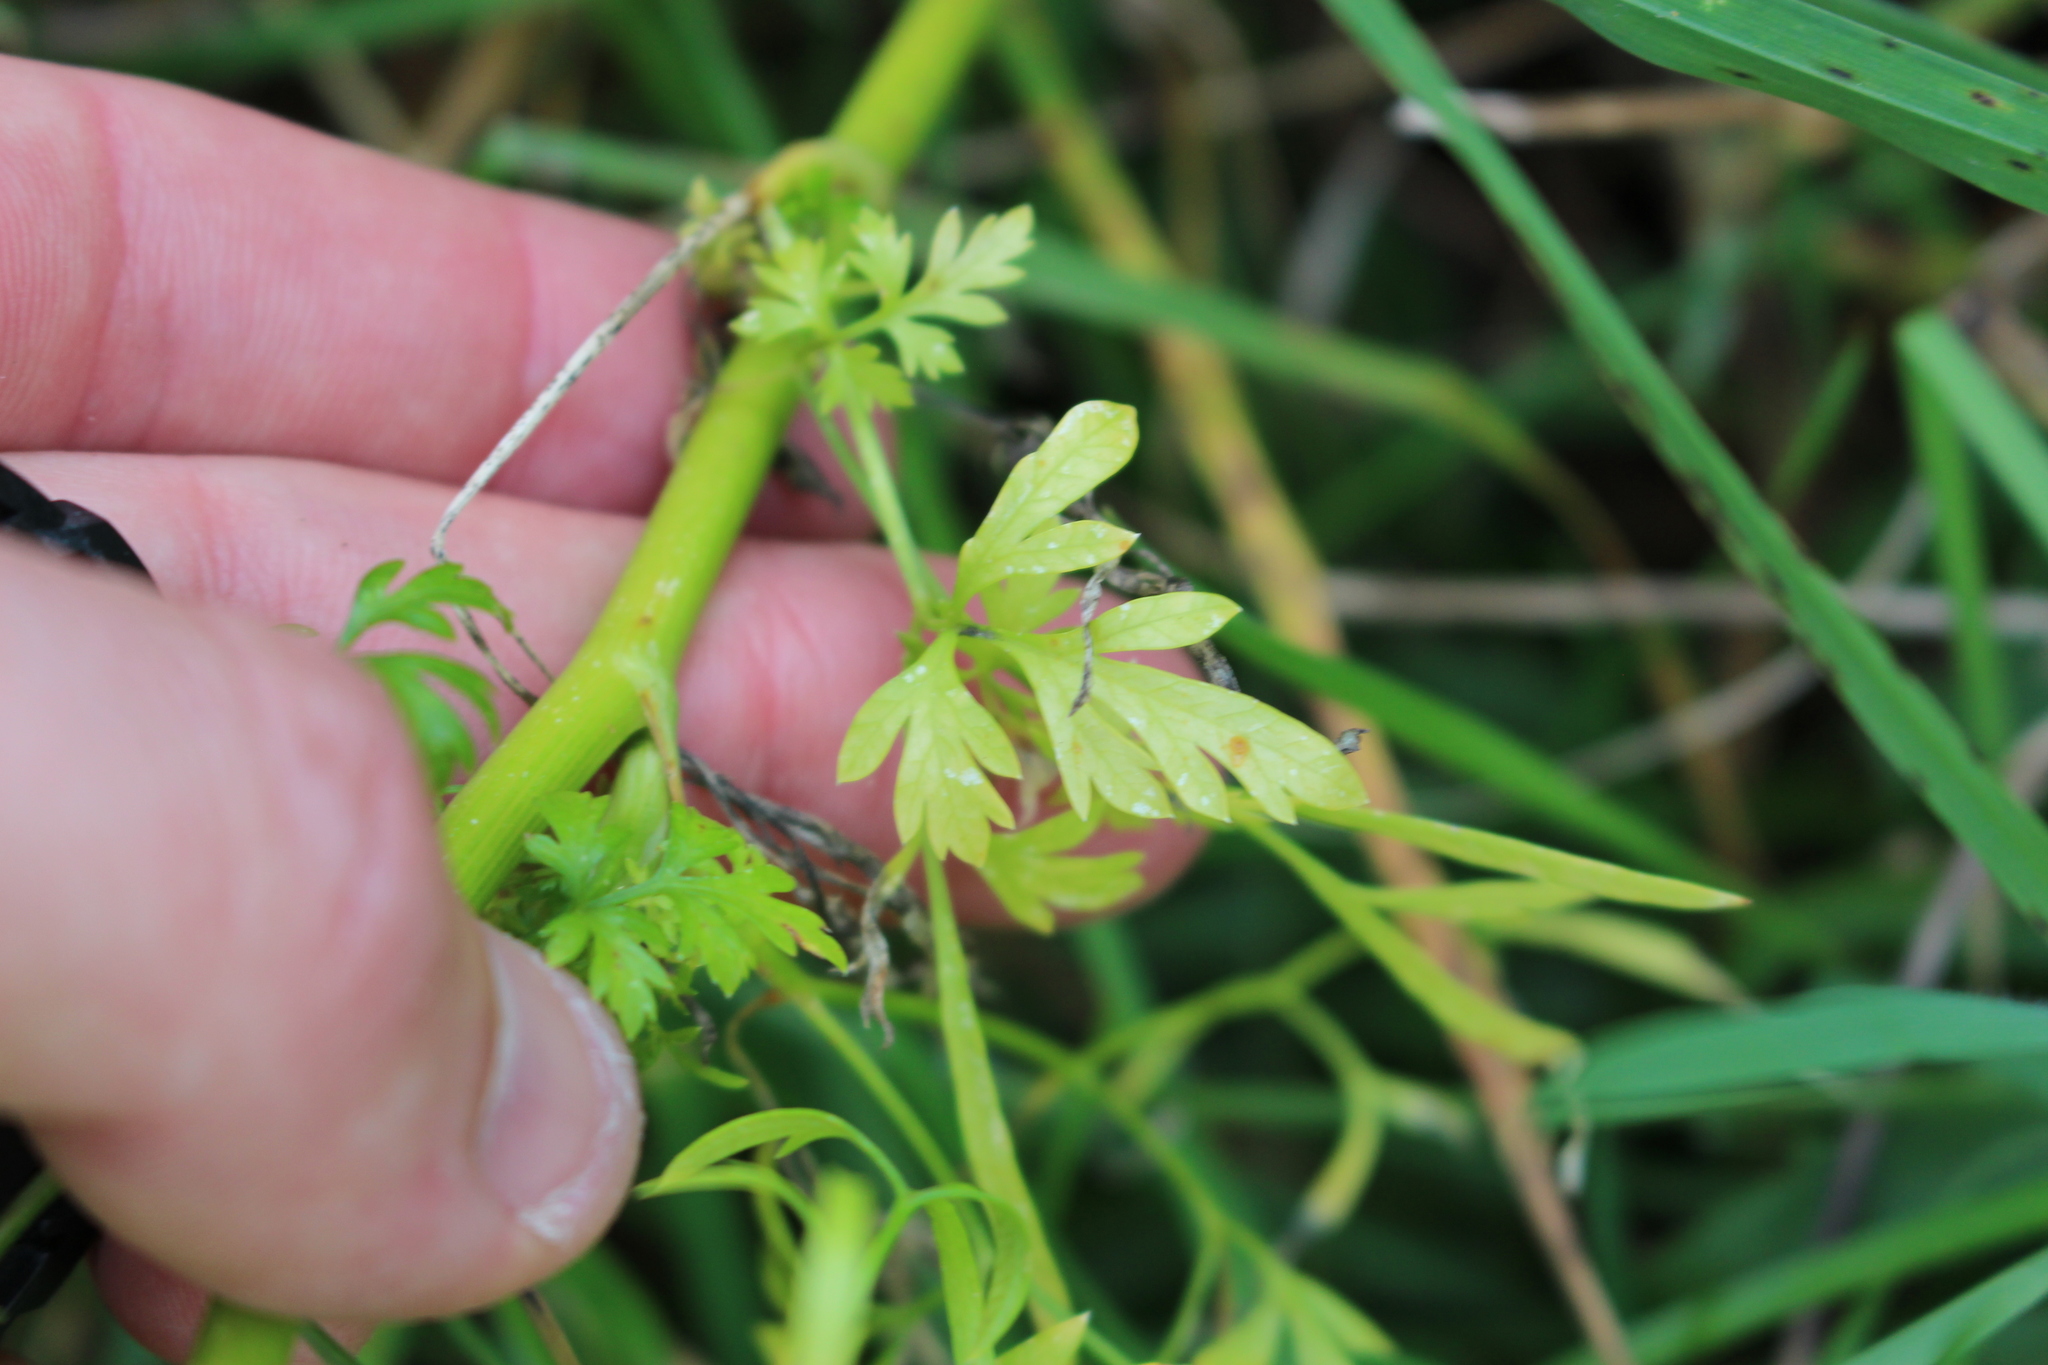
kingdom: Plantae
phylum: Tracheophyta
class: Magnoliopsida
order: Apiales
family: Apiaceae
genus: Petroselinum
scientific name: Petroselinum crispum
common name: Parsley
